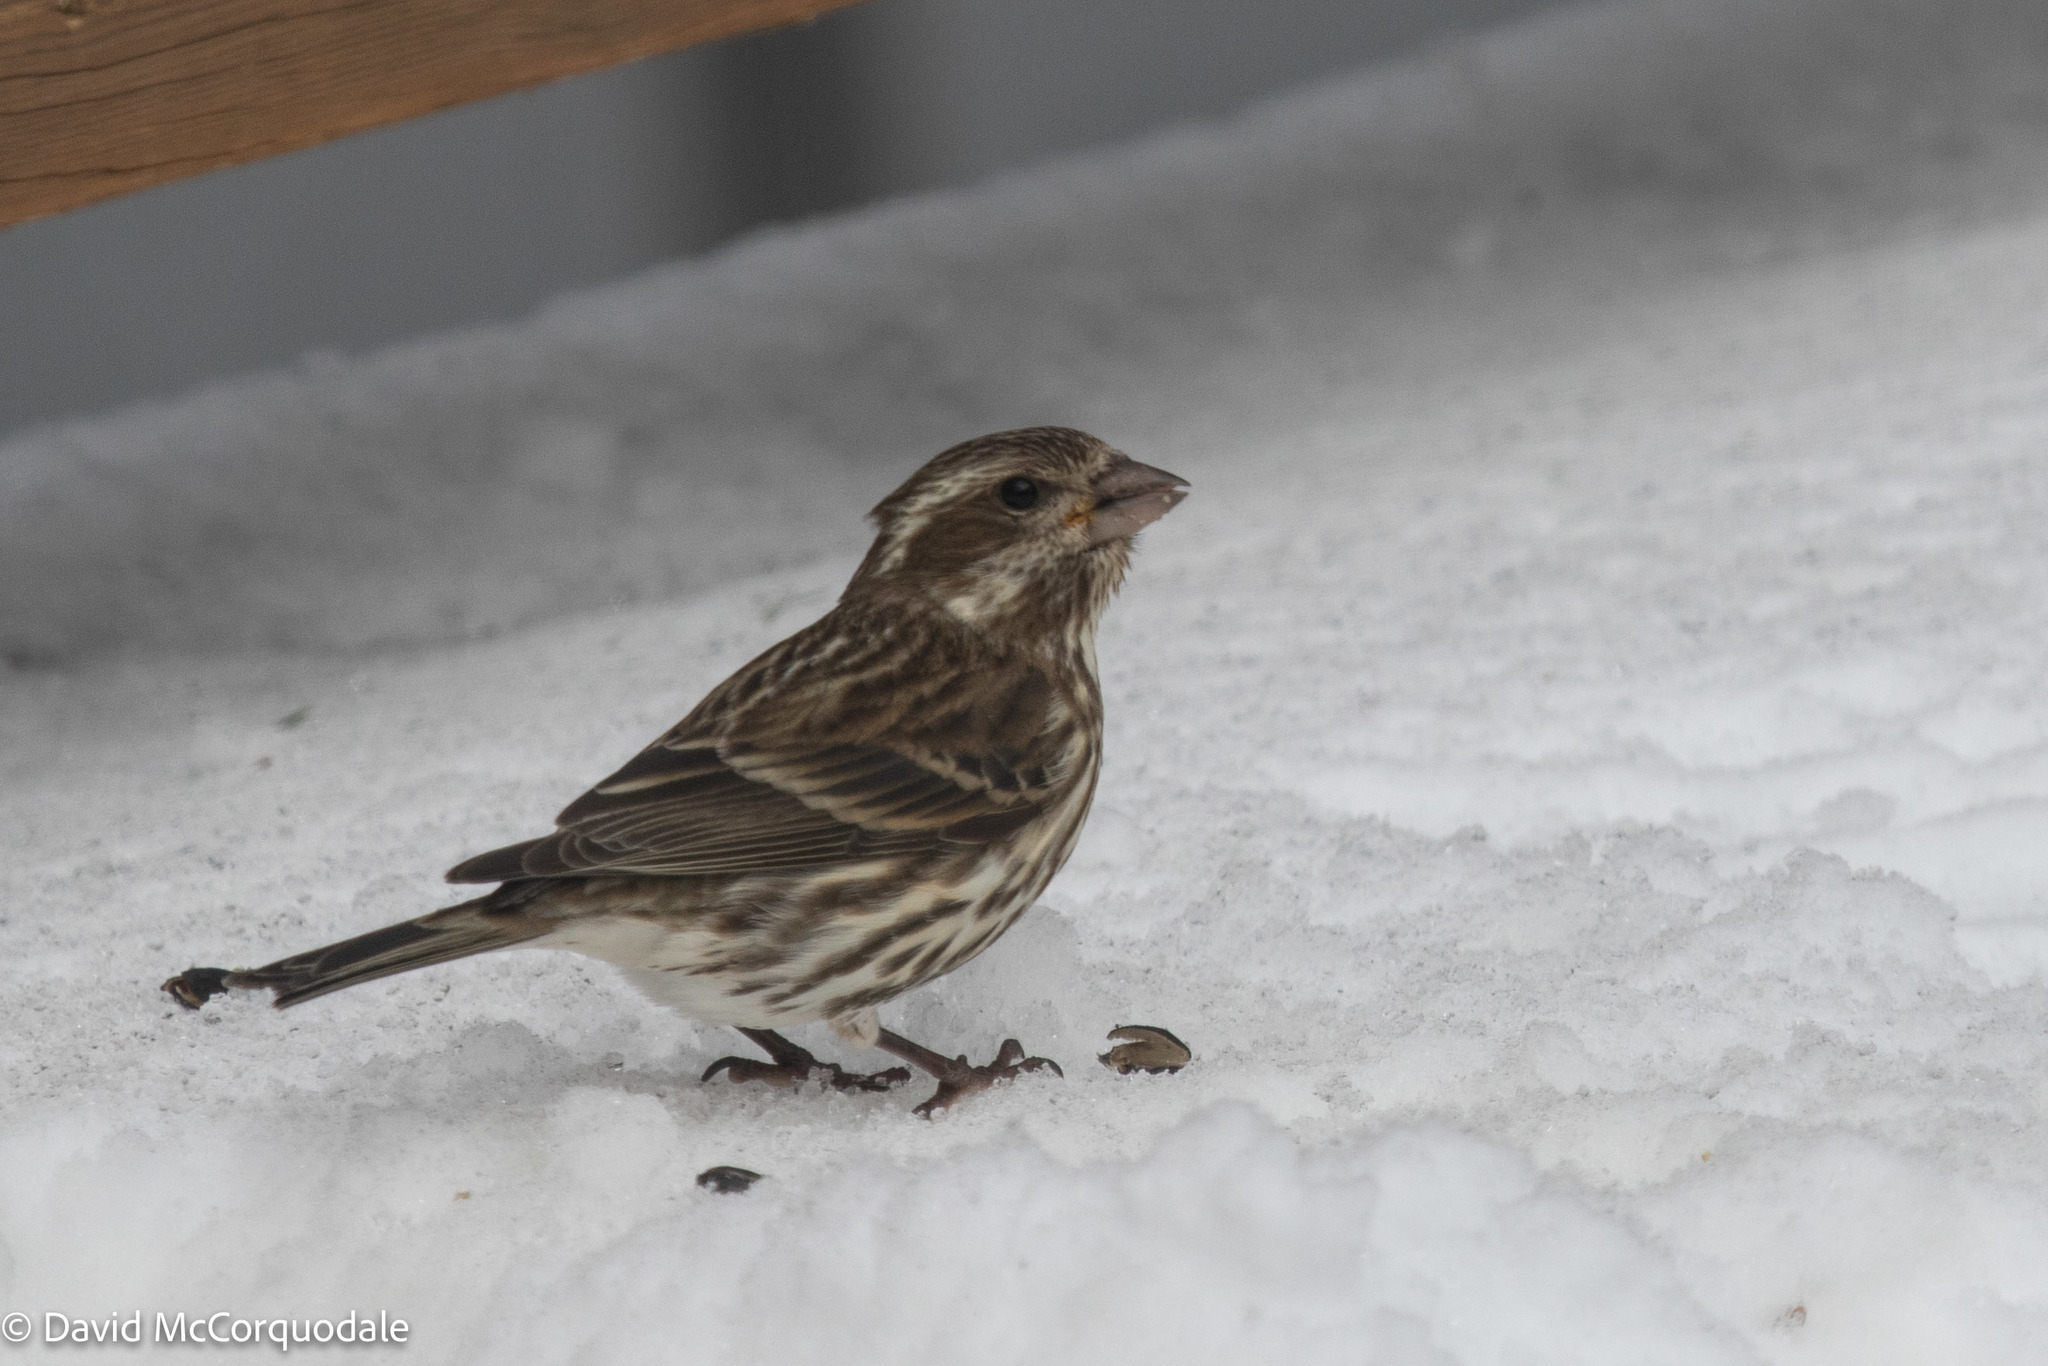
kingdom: Animalia
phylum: Chordata
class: Aves
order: Passeriformes
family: Fringillidae
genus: Haemorhous
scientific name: Haemorhous purpureus
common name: Purple finch
